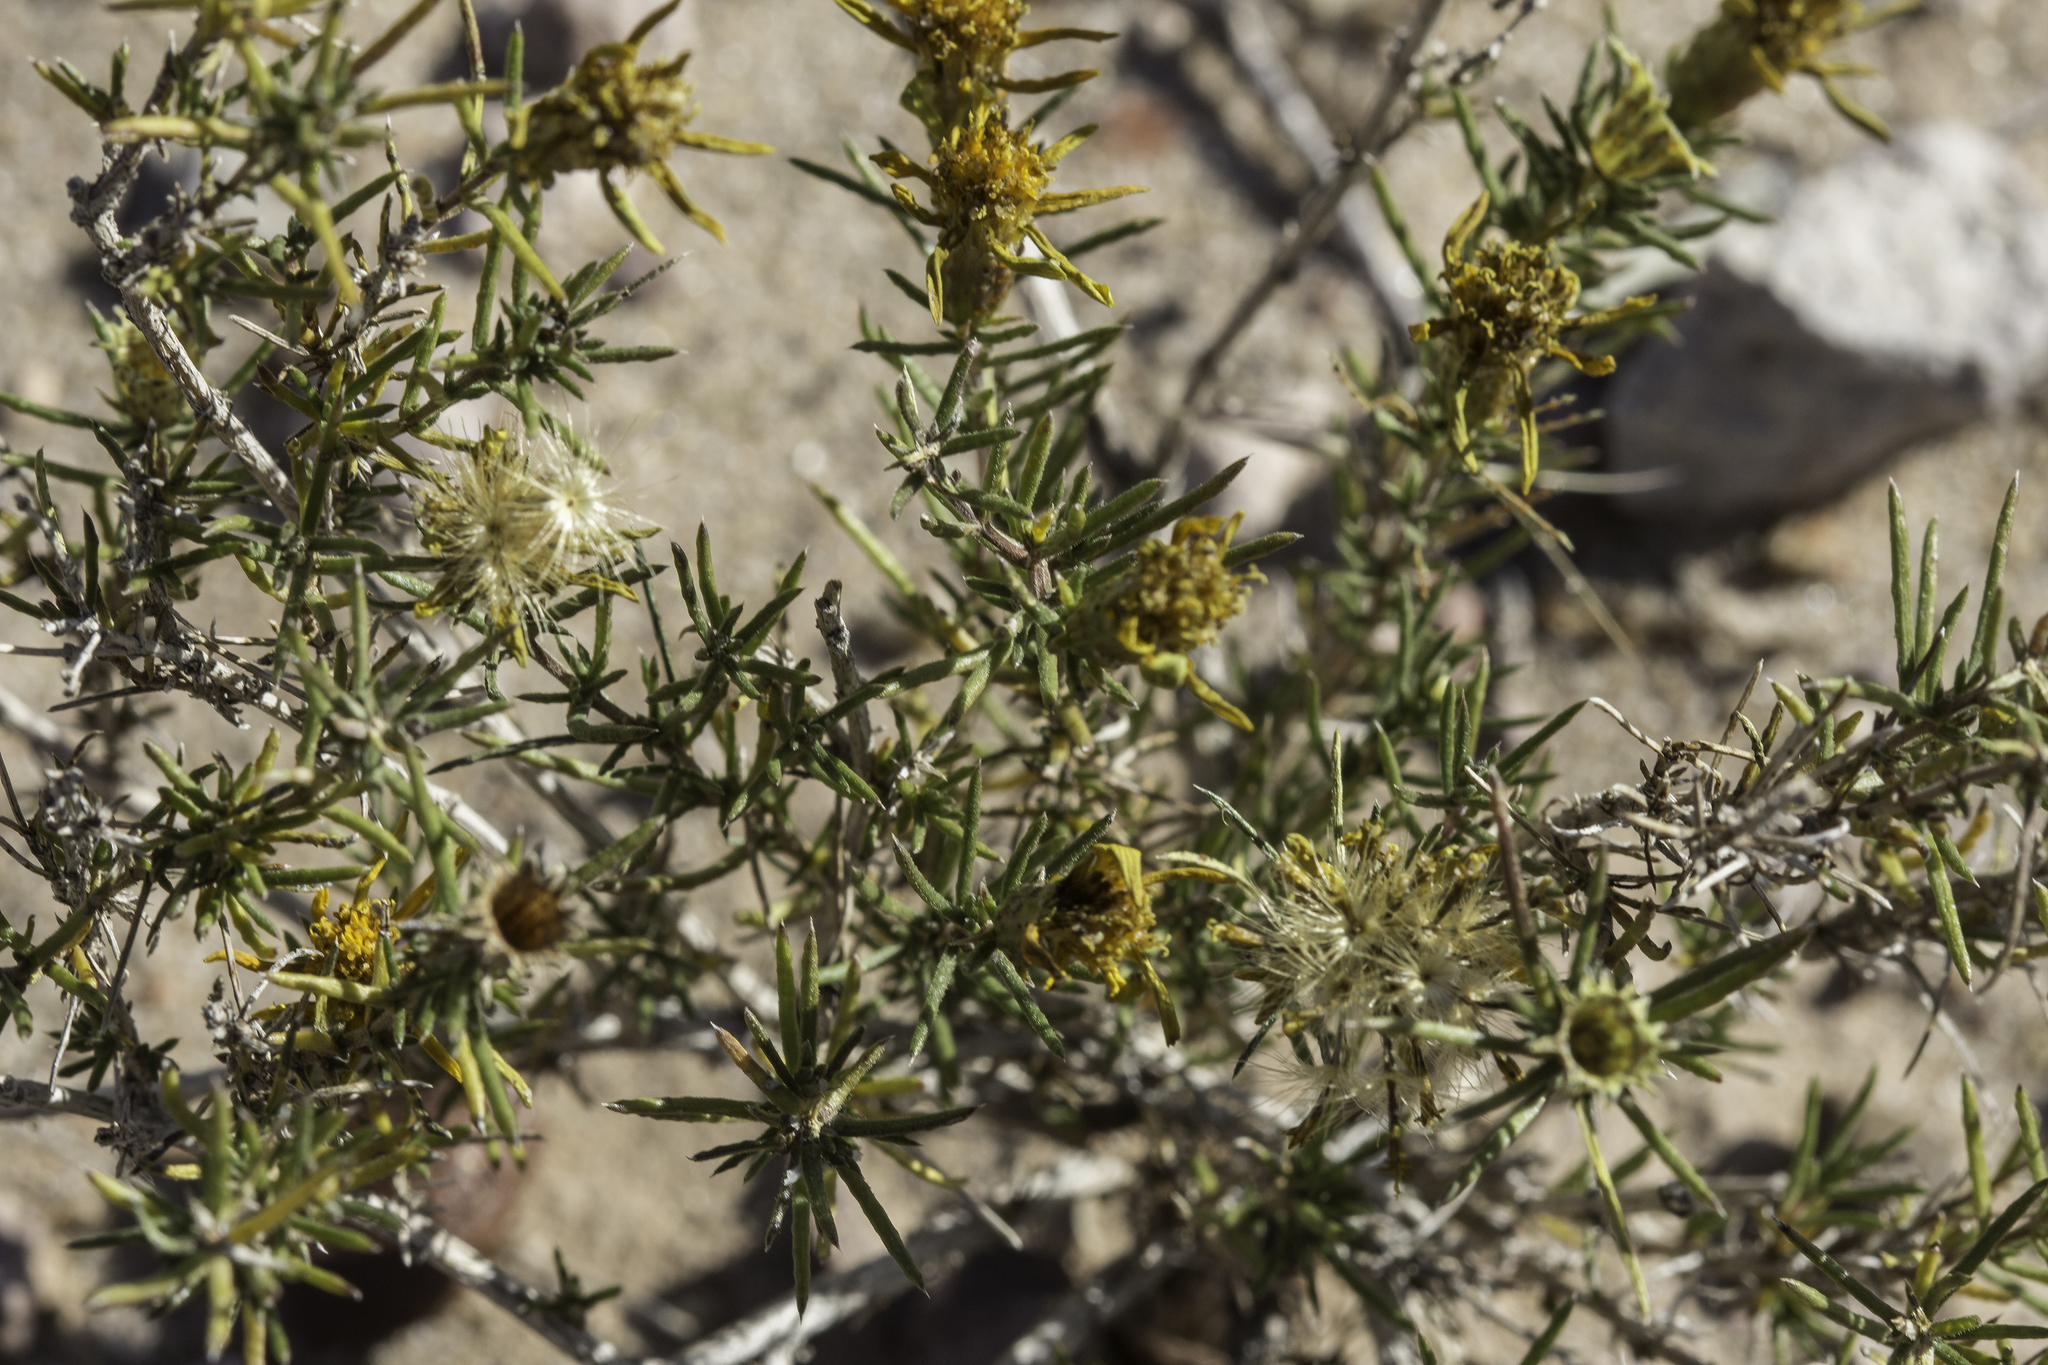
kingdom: Plantae
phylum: Tracheophyta
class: Magnoliopsida
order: Asterales
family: Asteraceae
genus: Thymophylla
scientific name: Thymophylla acerosa
